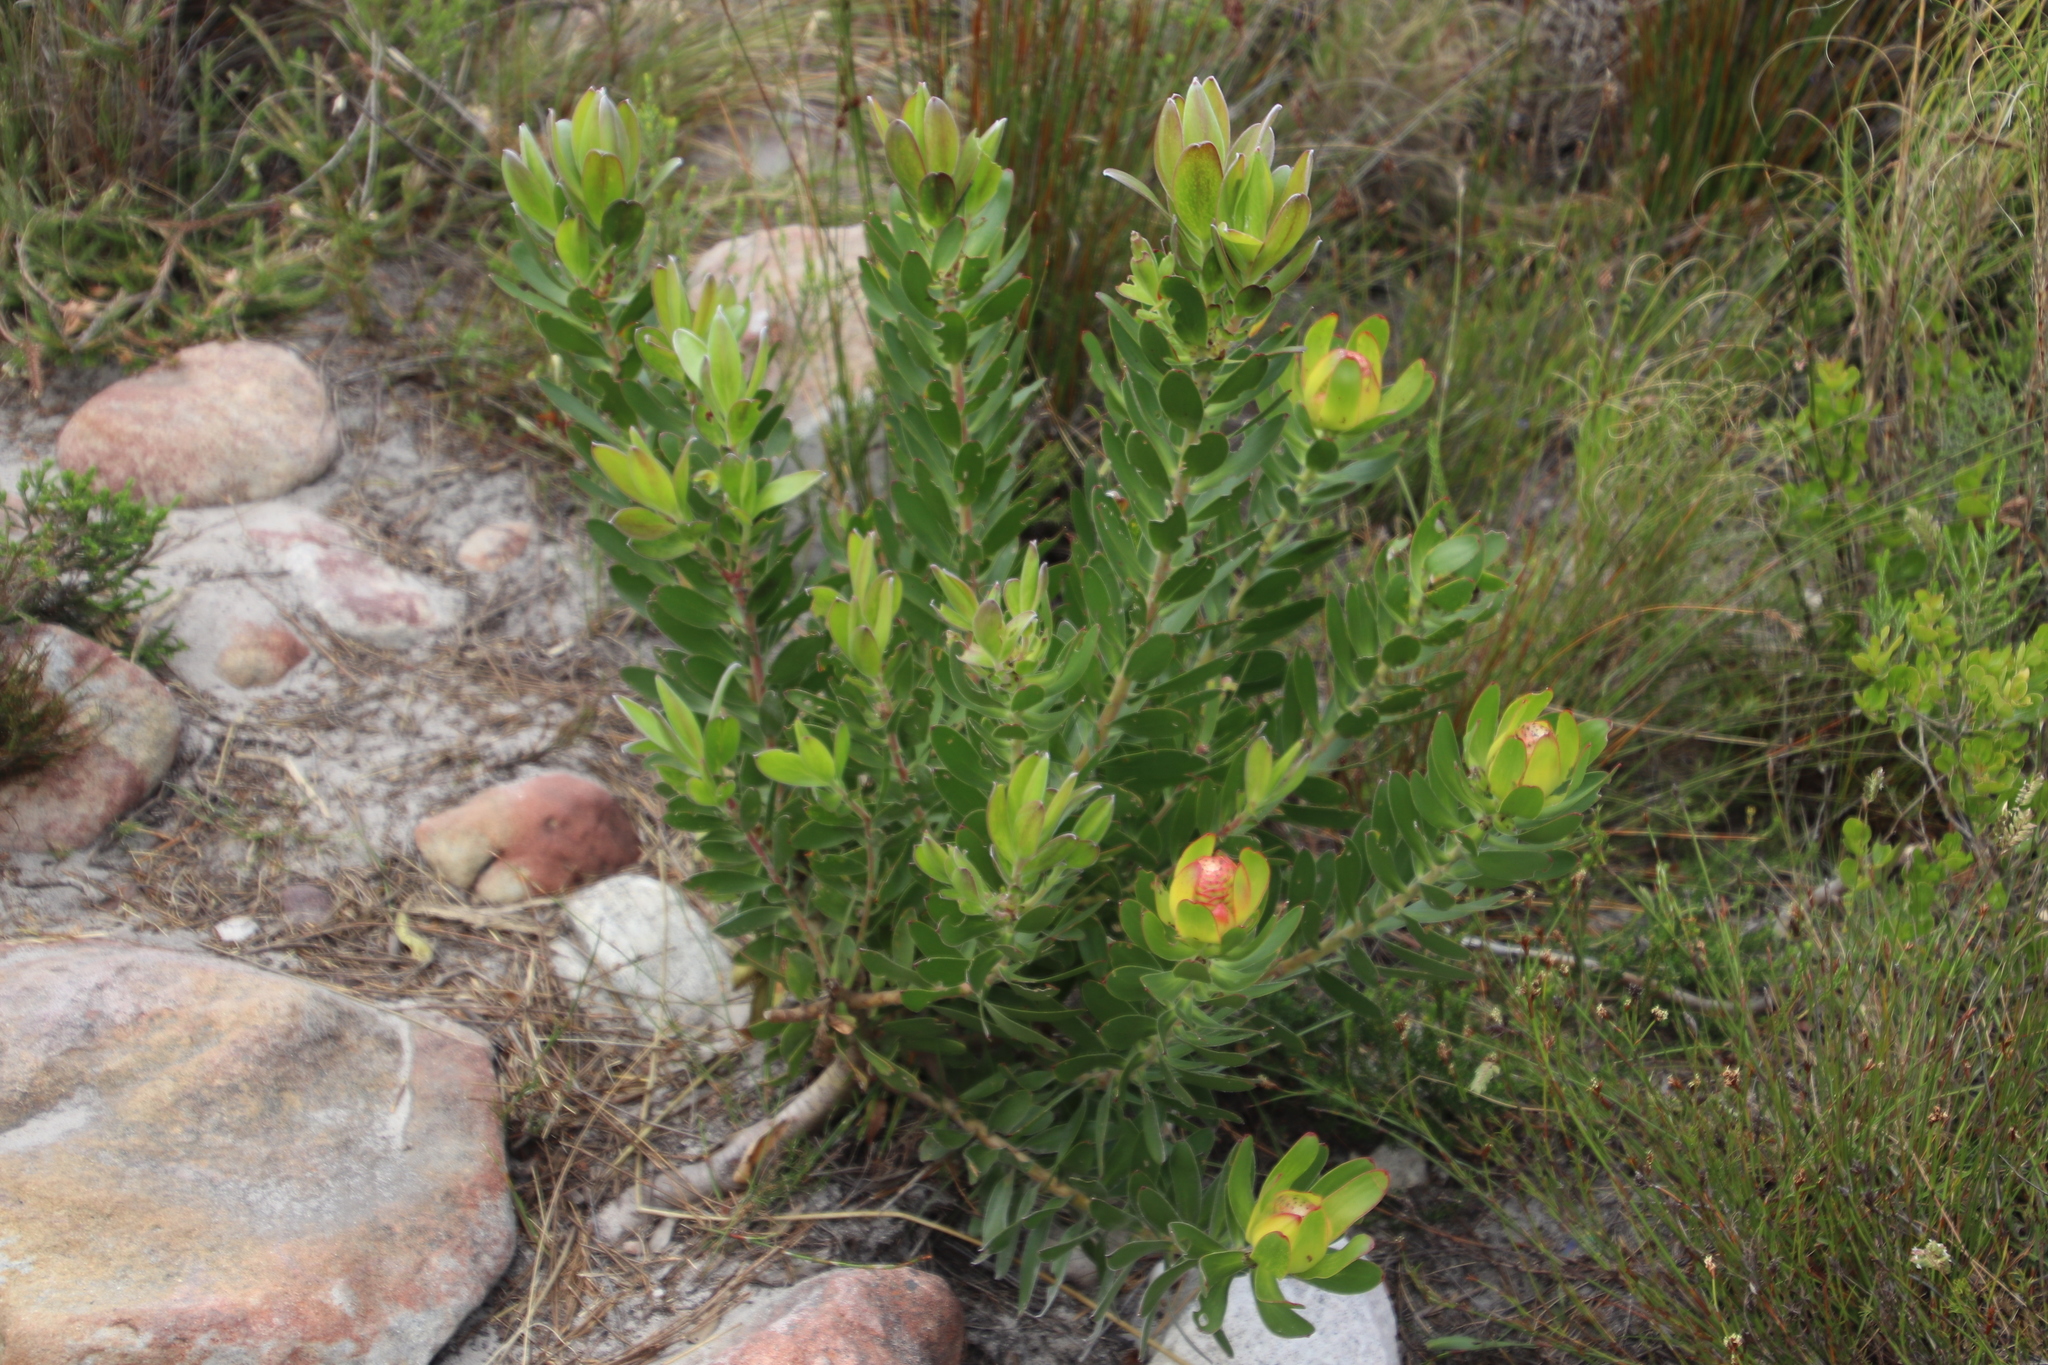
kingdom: Plantae
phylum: Tracheophyta
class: Magnoliopsida
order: Proteales
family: Proteaceae
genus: Leucadendron
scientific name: Leucadendron laureolum
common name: Golden sunshinebush
